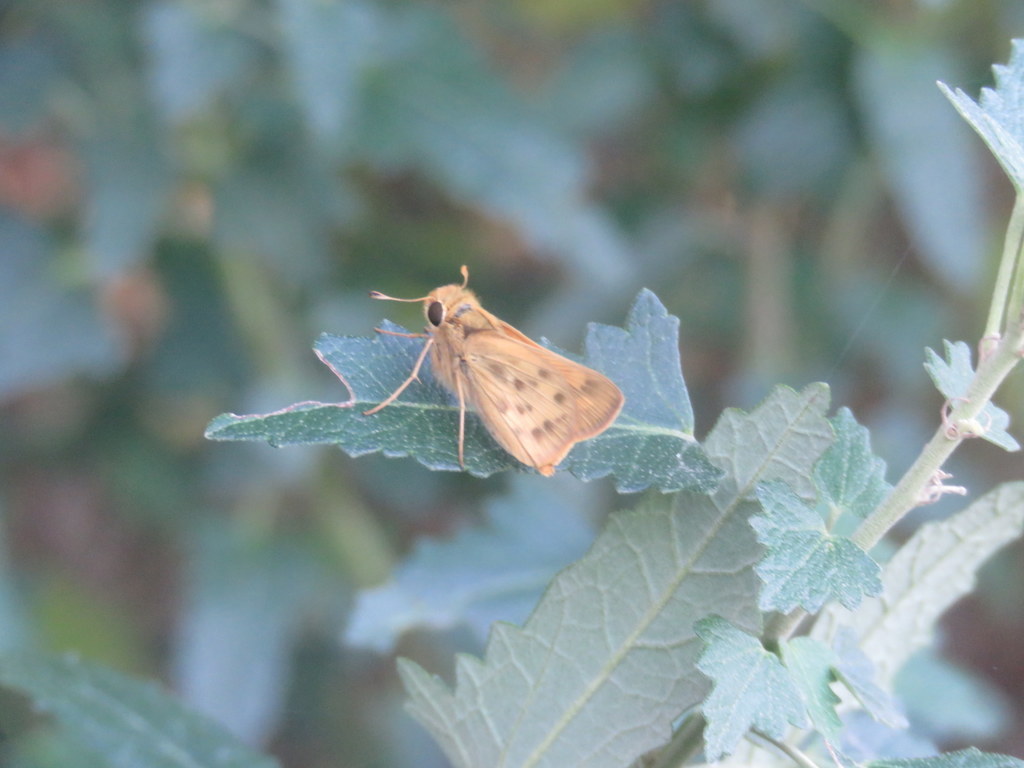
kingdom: Animalia
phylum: Arthropoda
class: Insecta
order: Lepidoptera
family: Hesperiidae
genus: Hylephila
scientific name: Hylephila phyleus
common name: Fiery skipper
